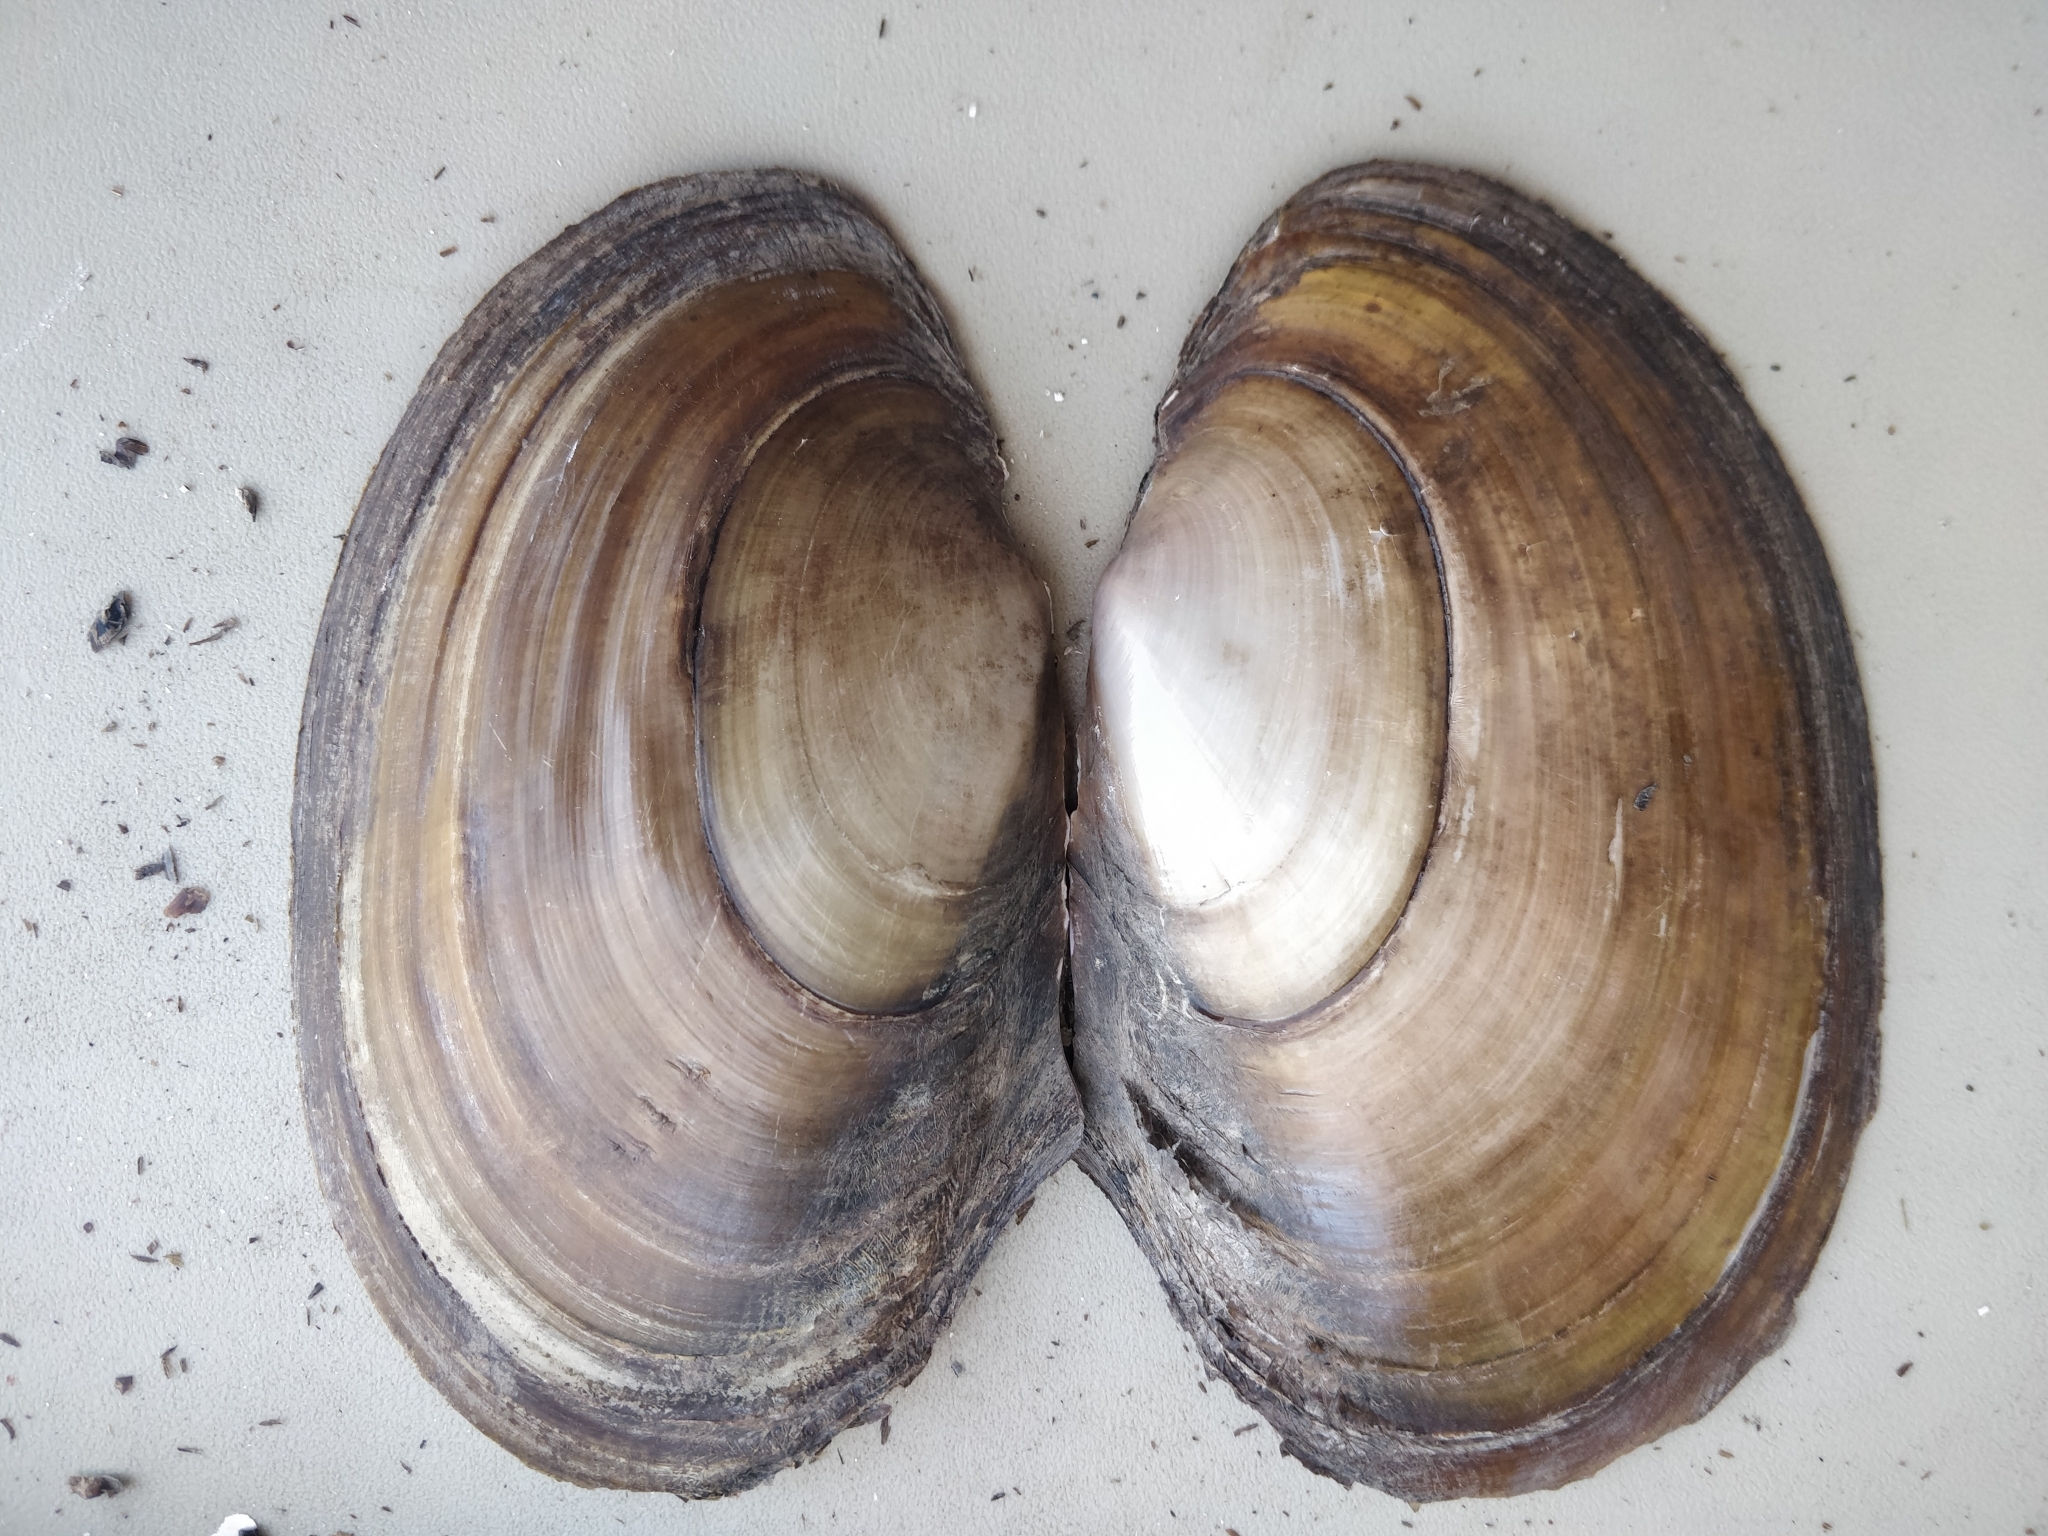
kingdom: Animalia
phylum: Mollusca
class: Bivalvia
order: Unionida
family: Unionidae
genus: Potamilus
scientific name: Potamilus ohiensis
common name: Pink papershell
